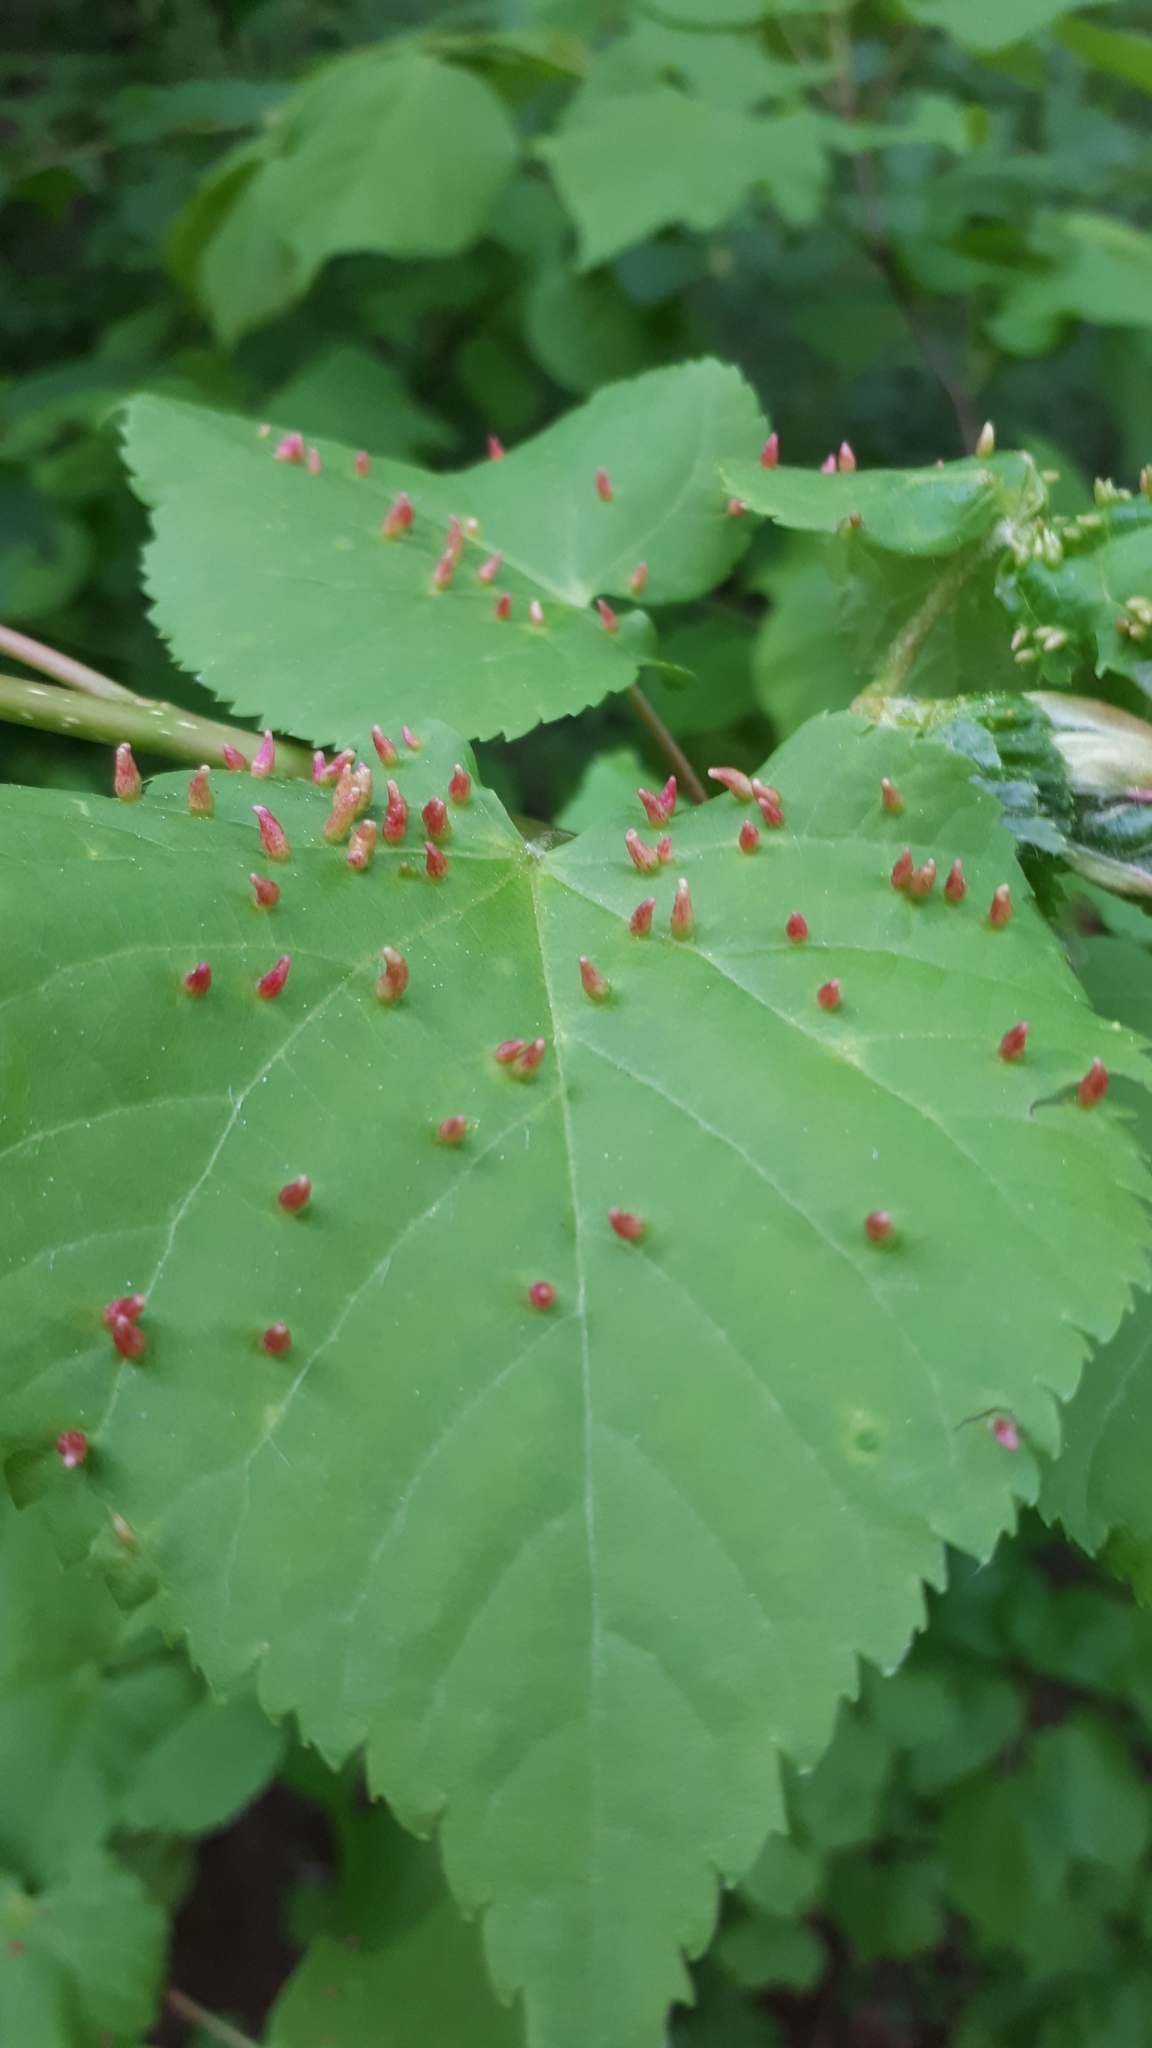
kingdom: Animalia
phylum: Arthropoda
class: Arachnida
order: Trombidiformes
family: Eriophyidae
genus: Eriophyes
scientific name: Eriophyes tiliae
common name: Red nail gall mite
